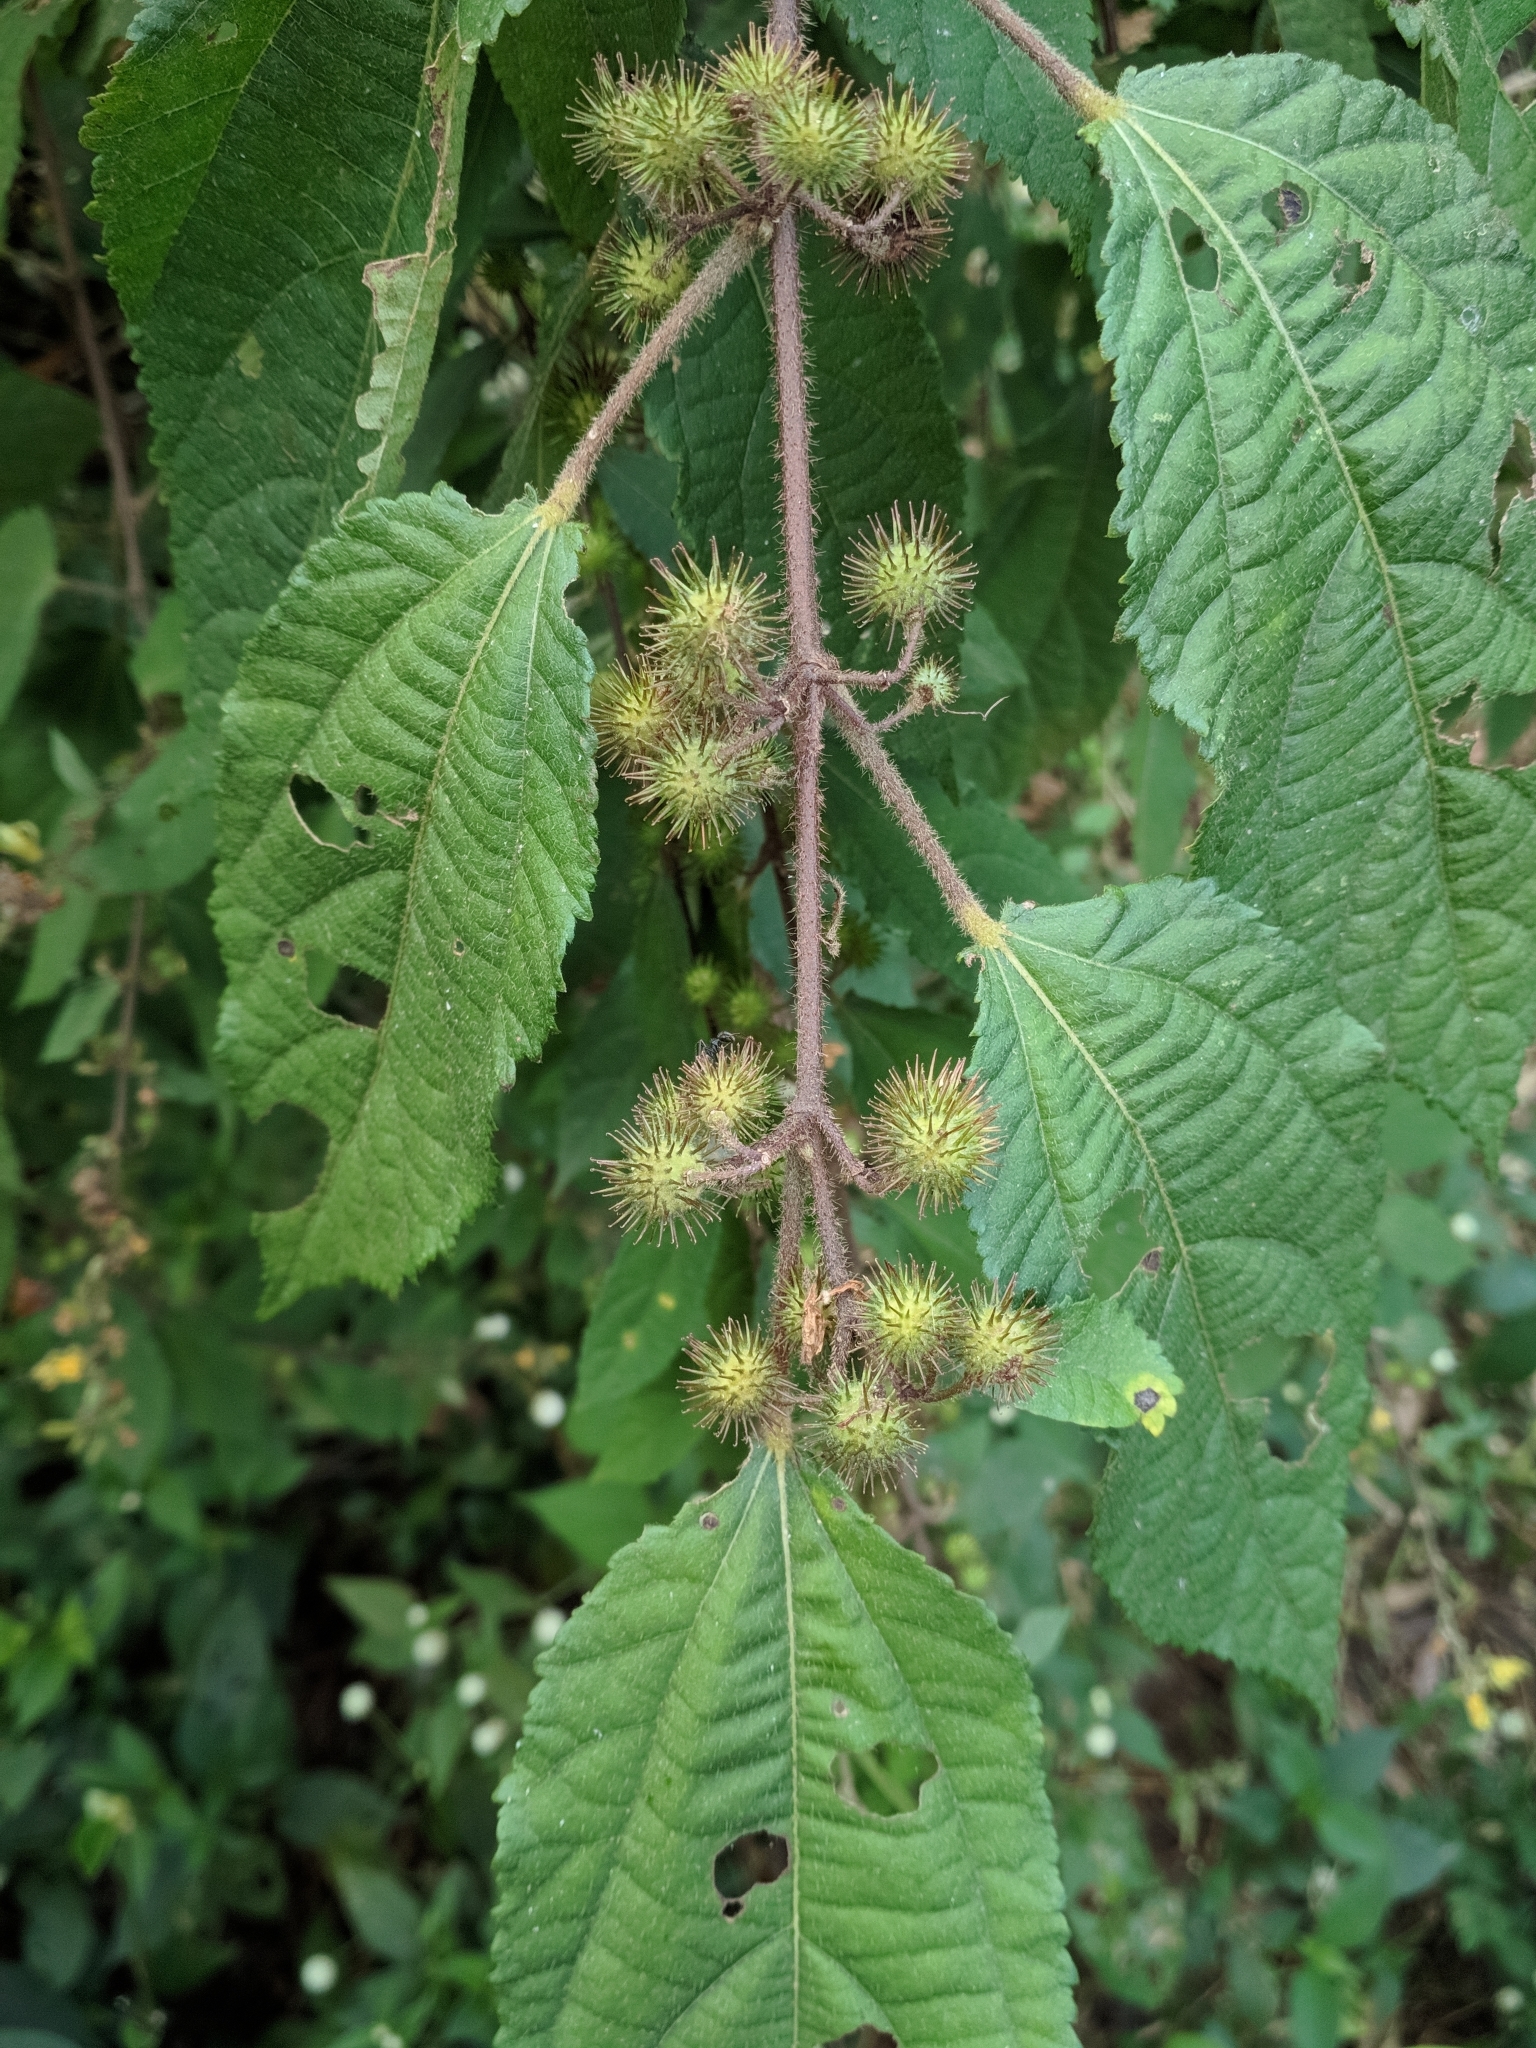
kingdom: Plantae
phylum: Tracheophyta
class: Magnoliopsida
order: Malvales
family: Malvaceae
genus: Triumfetta
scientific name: Triumfetta bogotensis
